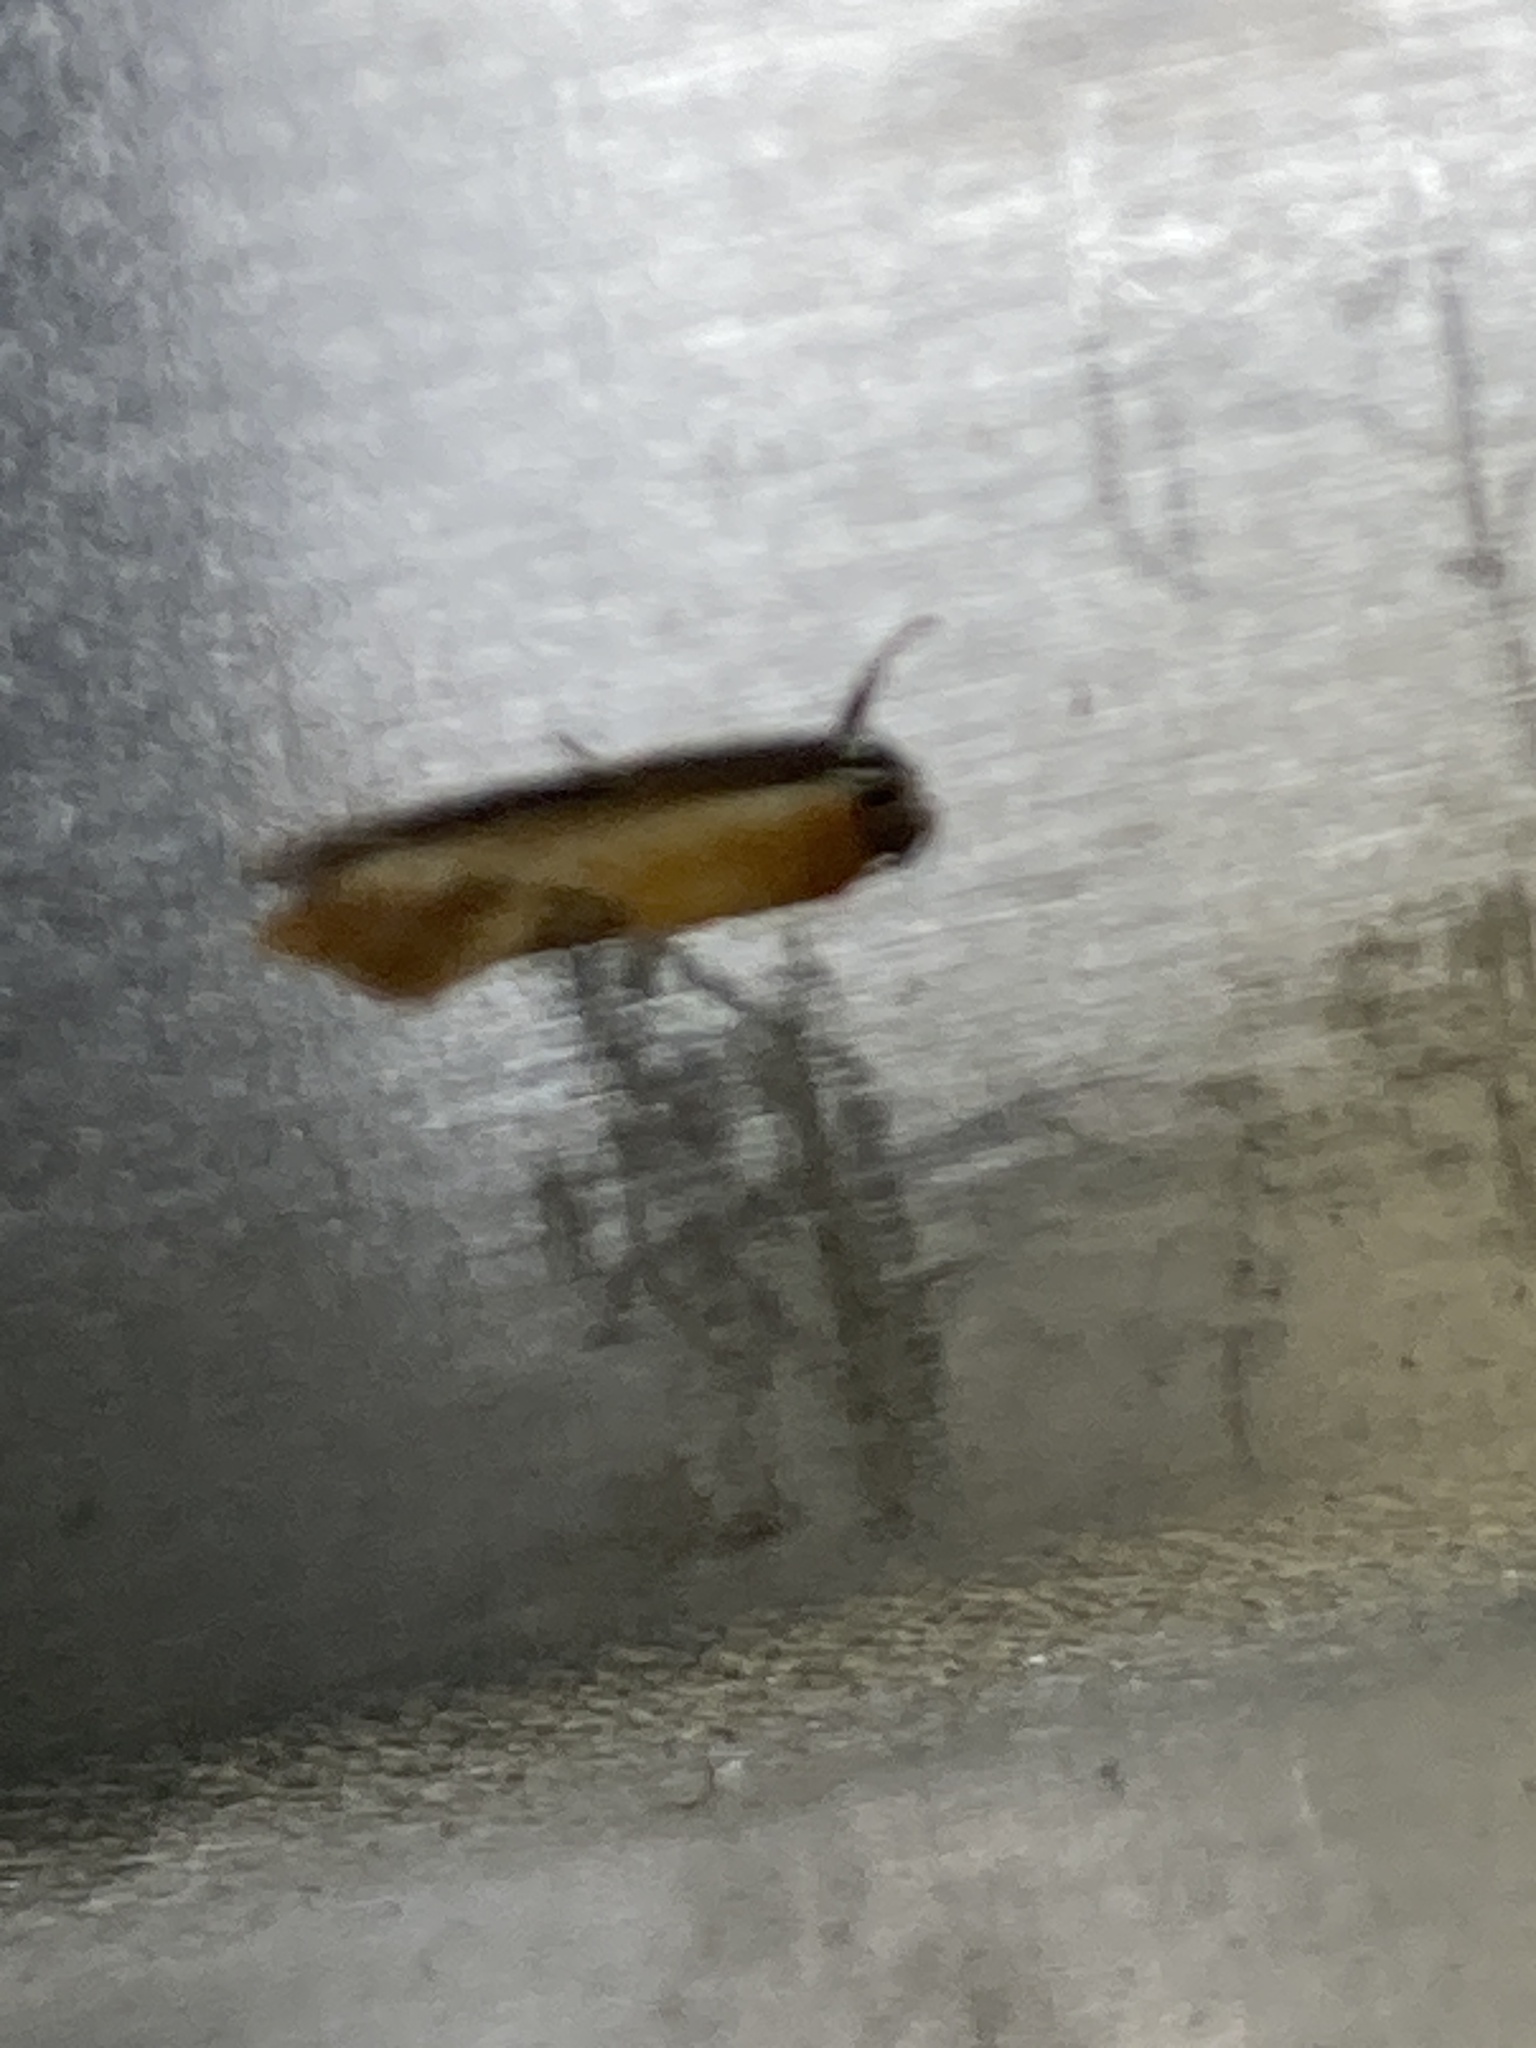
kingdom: Animalia
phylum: Arthropoda
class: Insecta
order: Lepidoptera
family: Oecophoridae
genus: Batia
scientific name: Batia lunaris
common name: Moth
